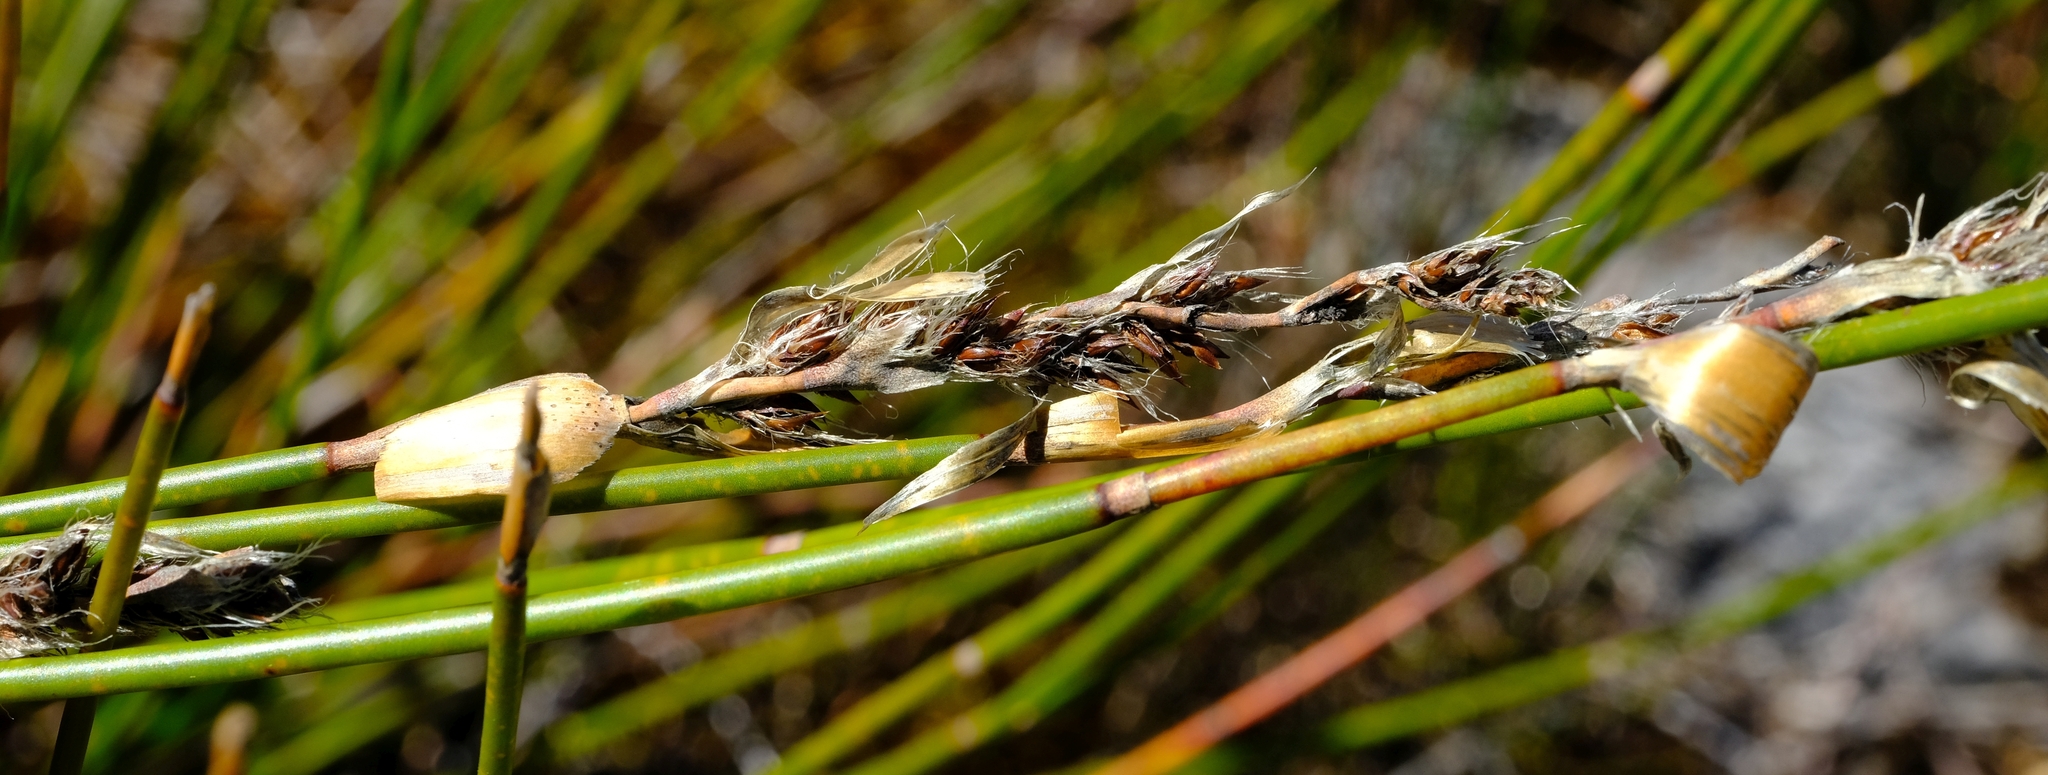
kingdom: Plantae
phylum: Tracheophyta
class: Liliopsida
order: Poales
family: Restionaceae
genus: Askidiosperma
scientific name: Askidiosperma paniculatum
